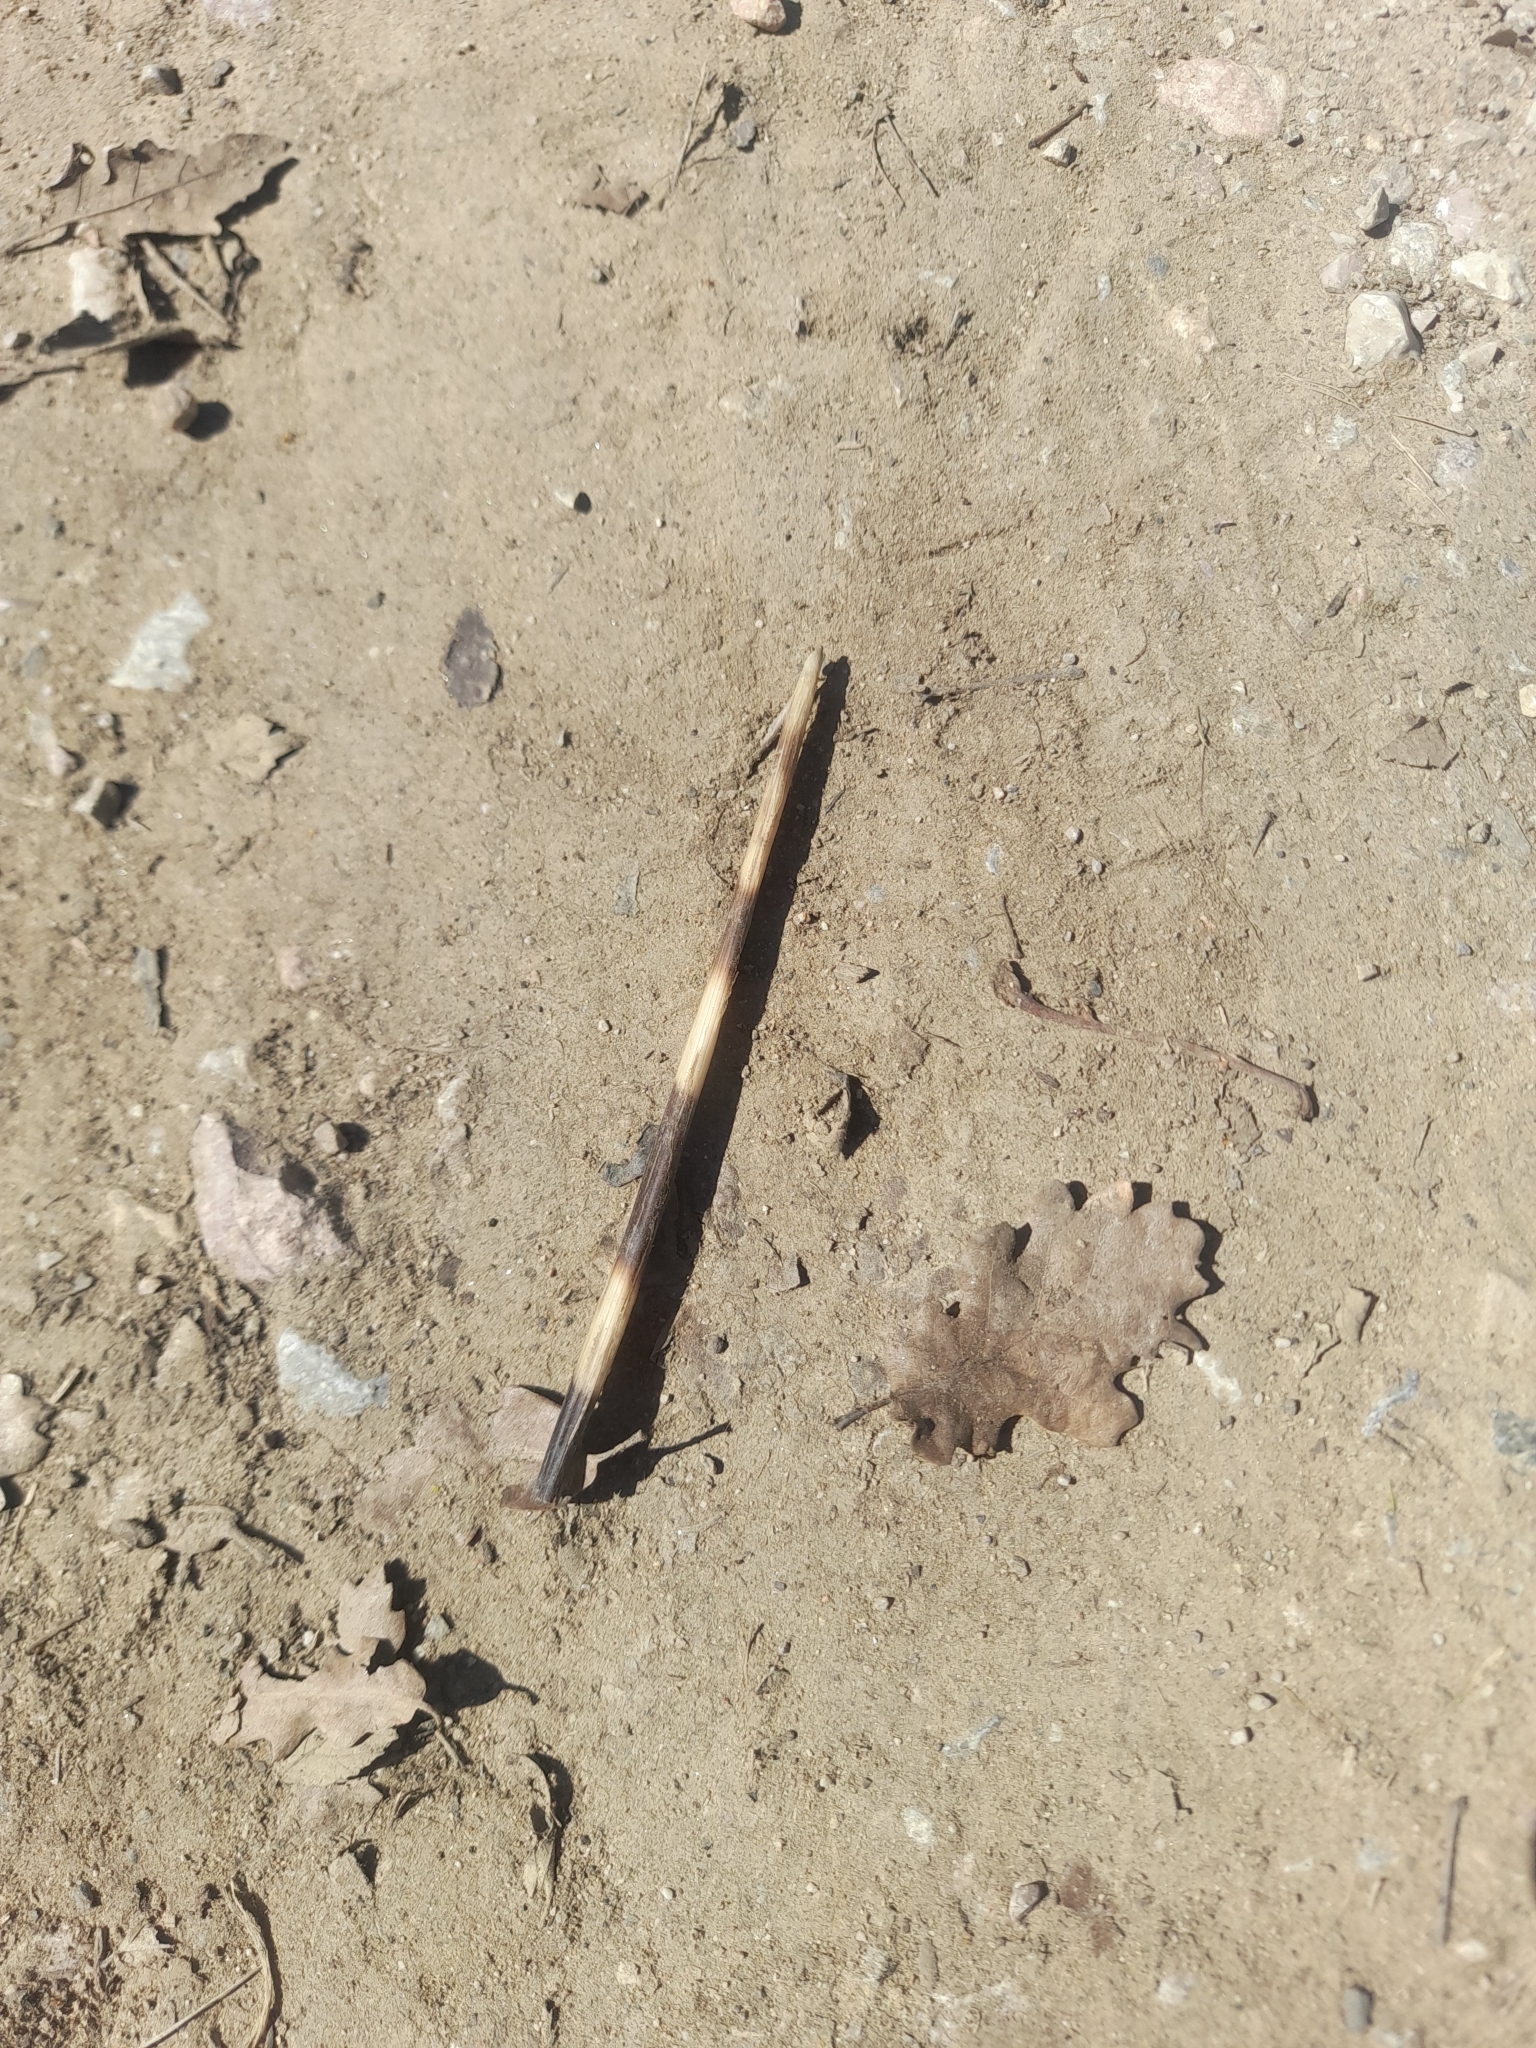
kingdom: Animalia
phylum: Chordata
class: Mammalia
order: Rodentia
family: Hystricidae
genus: Hystrix
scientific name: Hystrix cristata
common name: Crested porcupine
